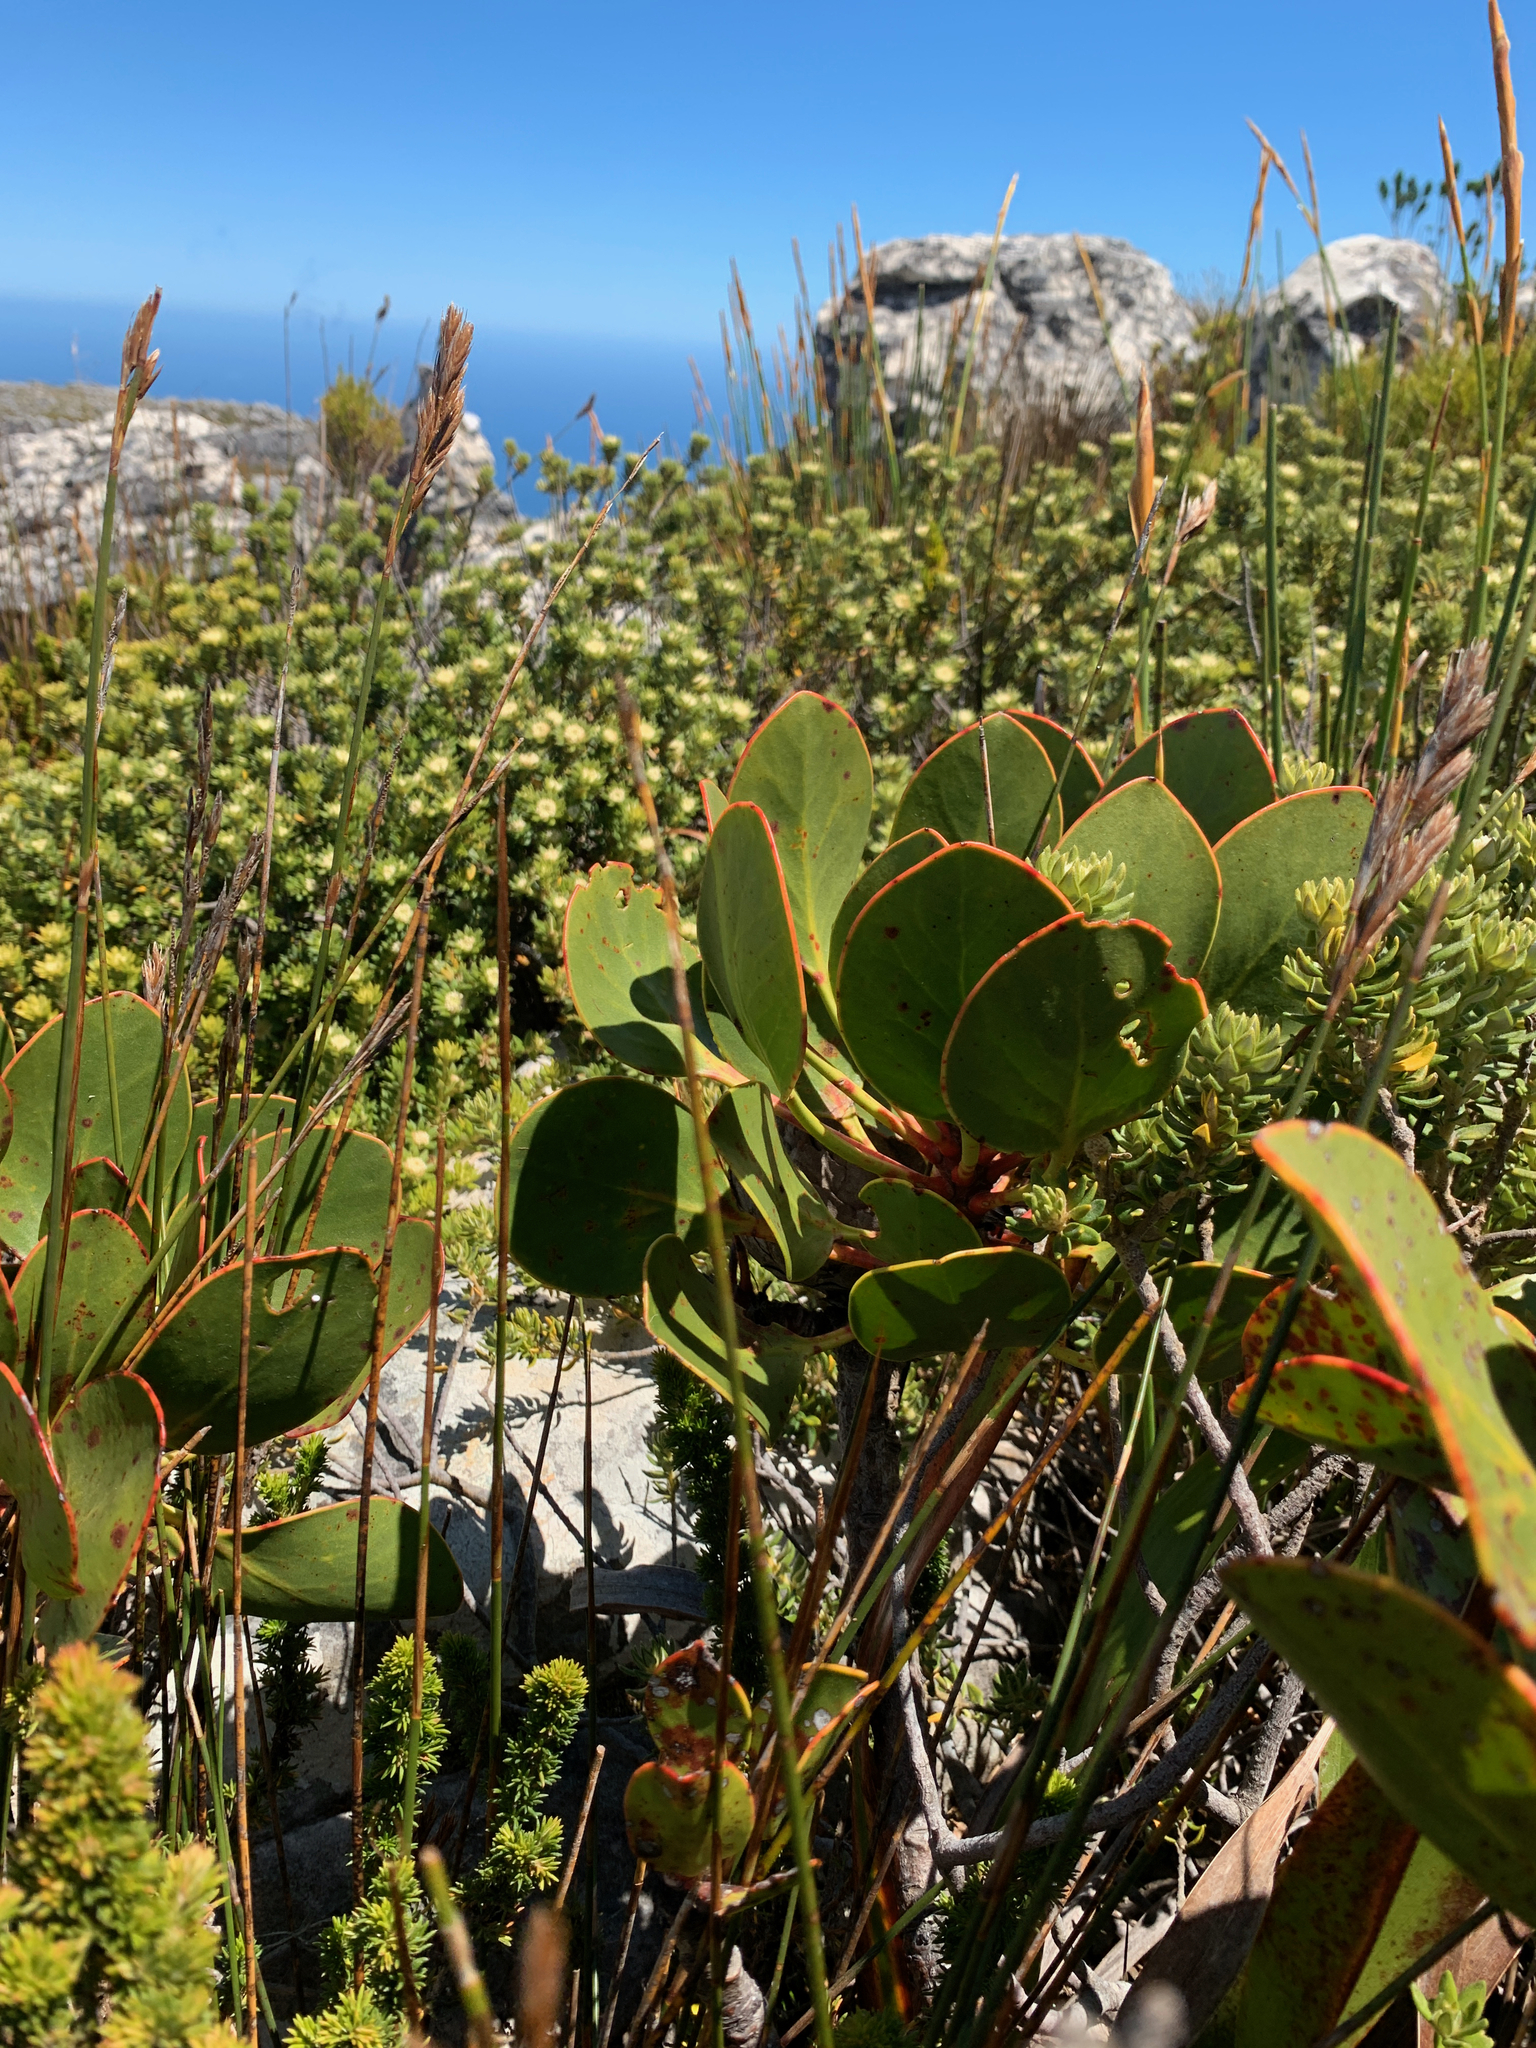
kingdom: Plantae
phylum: Tracheophyta
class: Magnoliopsida
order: Proteales
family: Proteaceae
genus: Protea
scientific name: Protea cynaroides
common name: King protea
